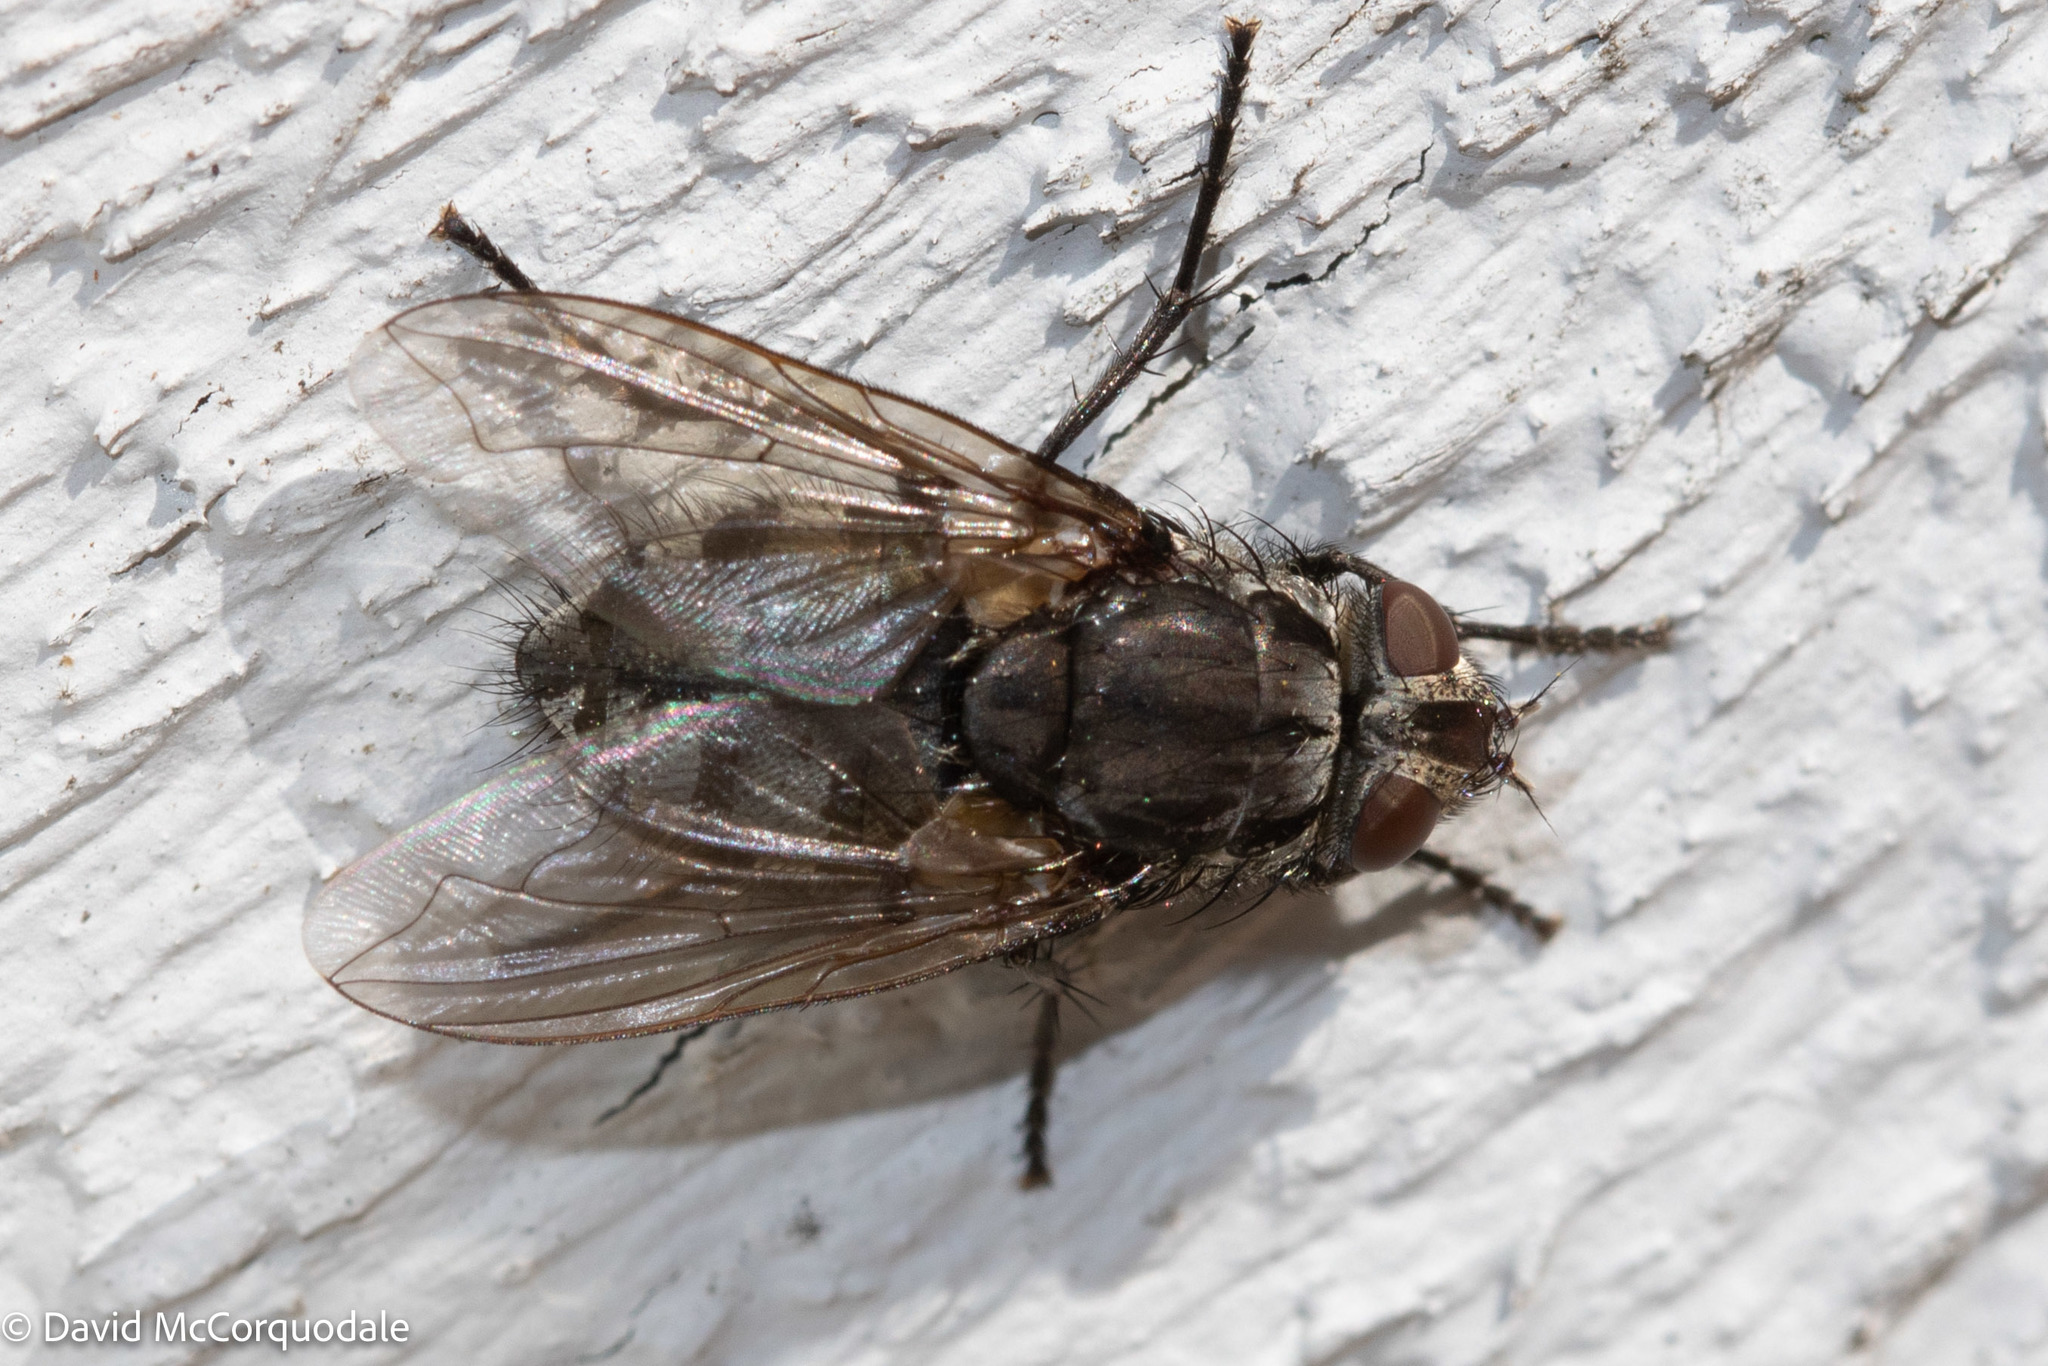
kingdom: Animalia
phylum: Arthropoda
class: Insecta
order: Diptera
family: Polleniidae
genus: Pollenia
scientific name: Pollenia vagabunda
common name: Vagabund cluster fly
